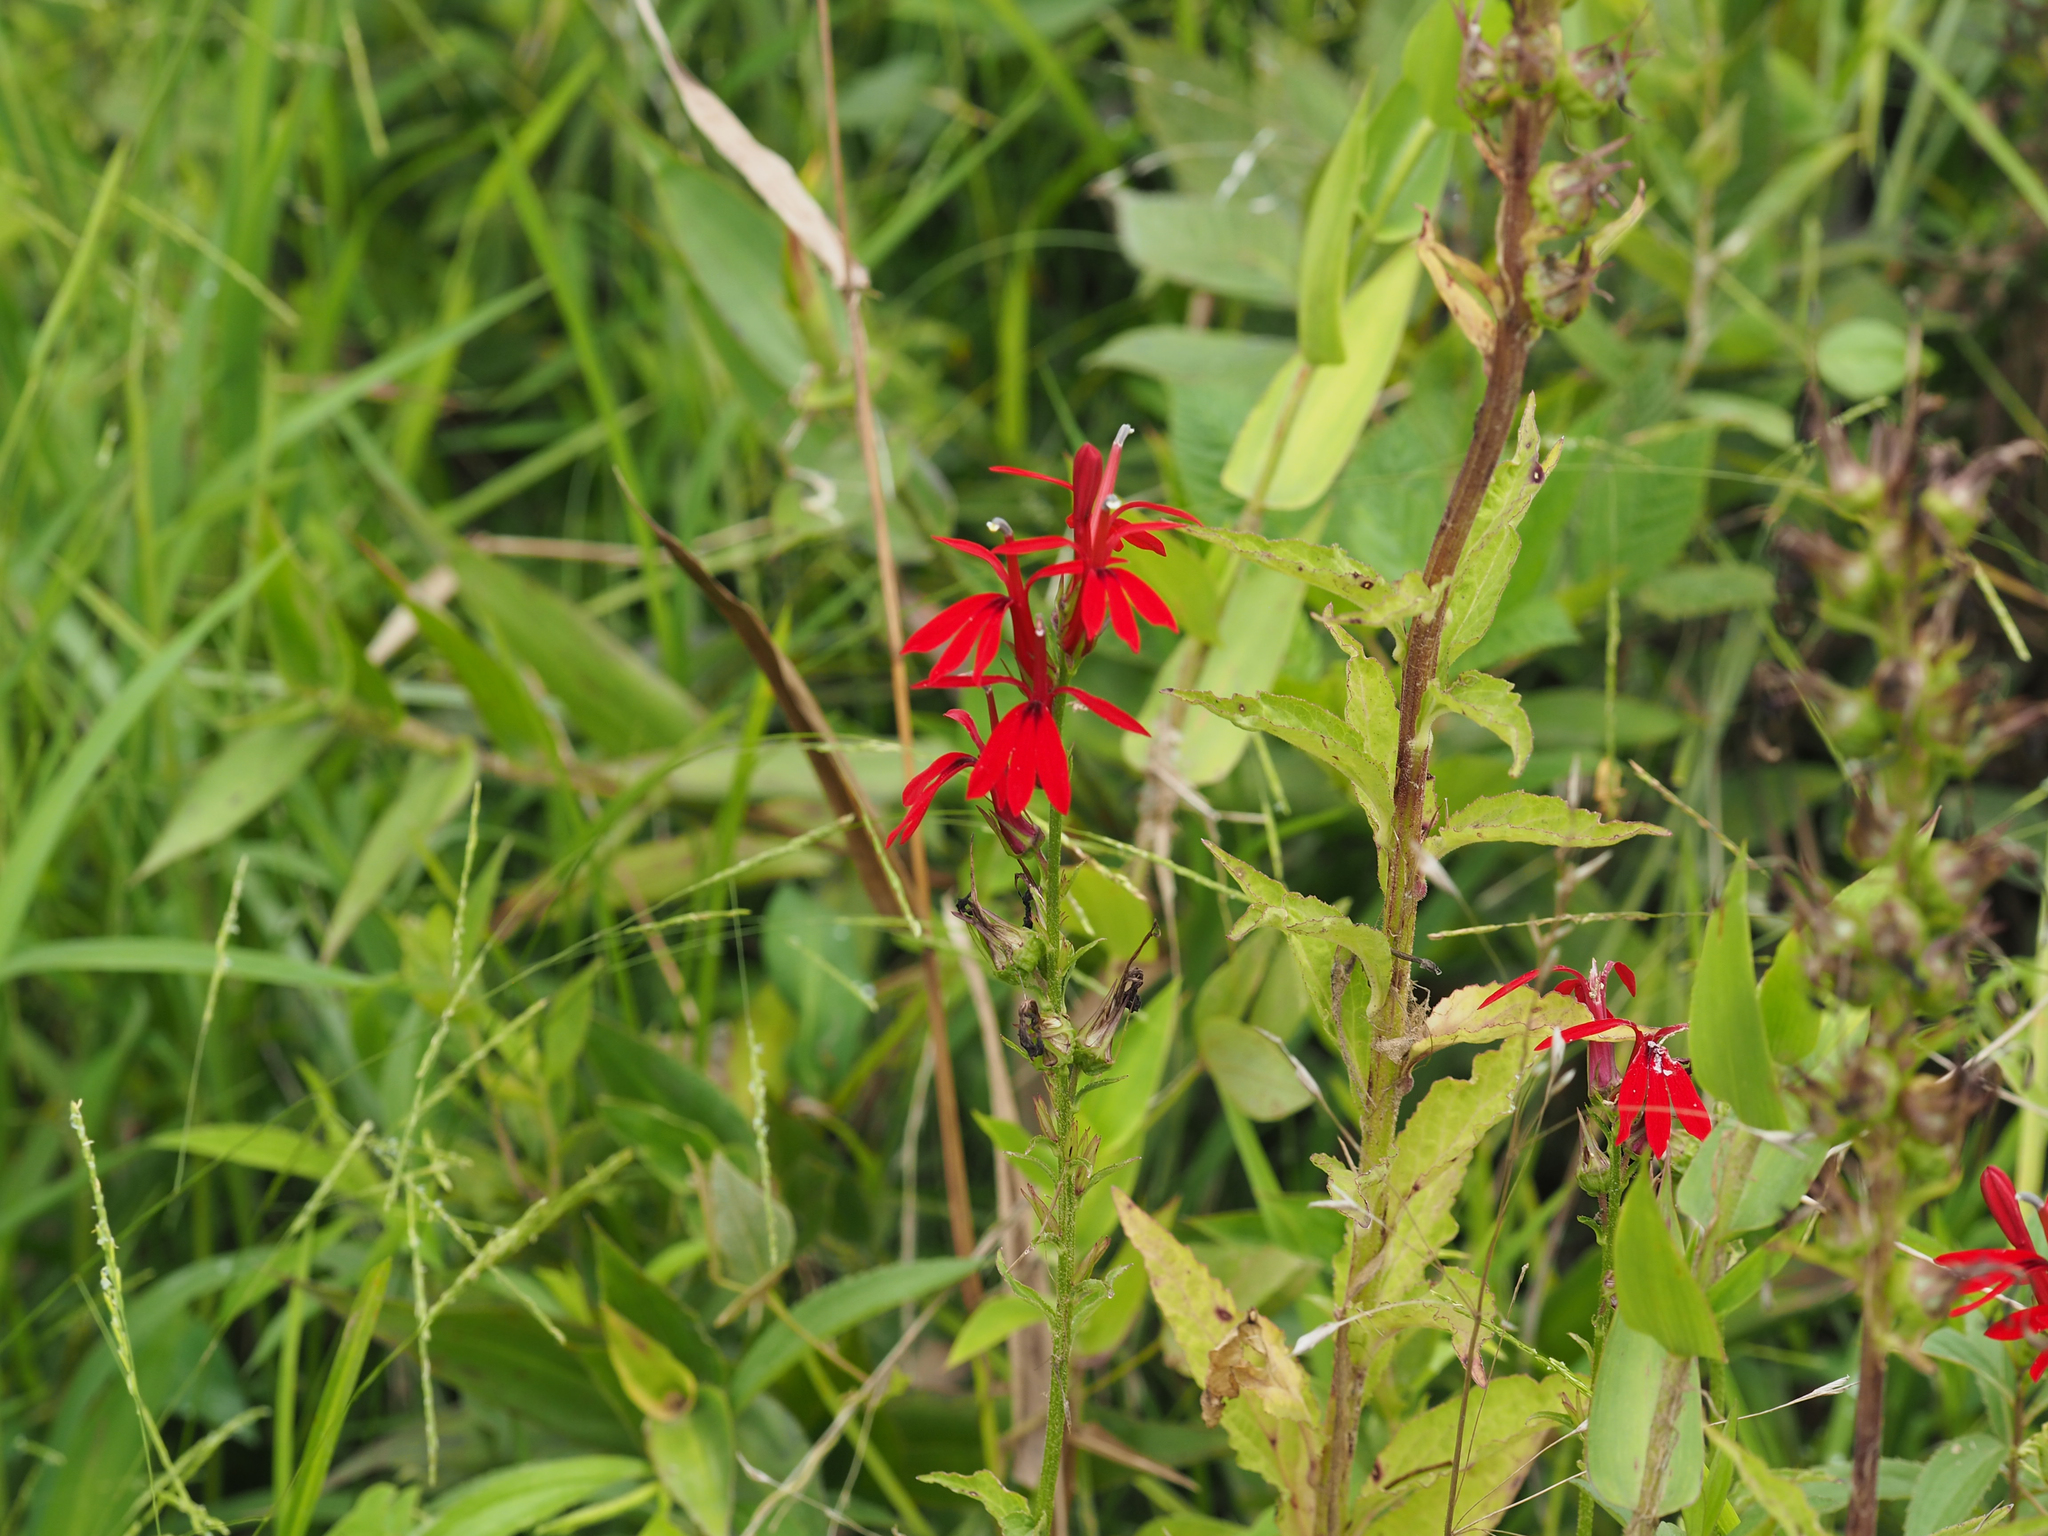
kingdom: Plantae
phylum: Tracheophyta
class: Magnoliopsida
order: Asterales
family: Campanulaceae
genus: Lobelia
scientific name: Lobelia cardinalis
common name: Cardinal flower
